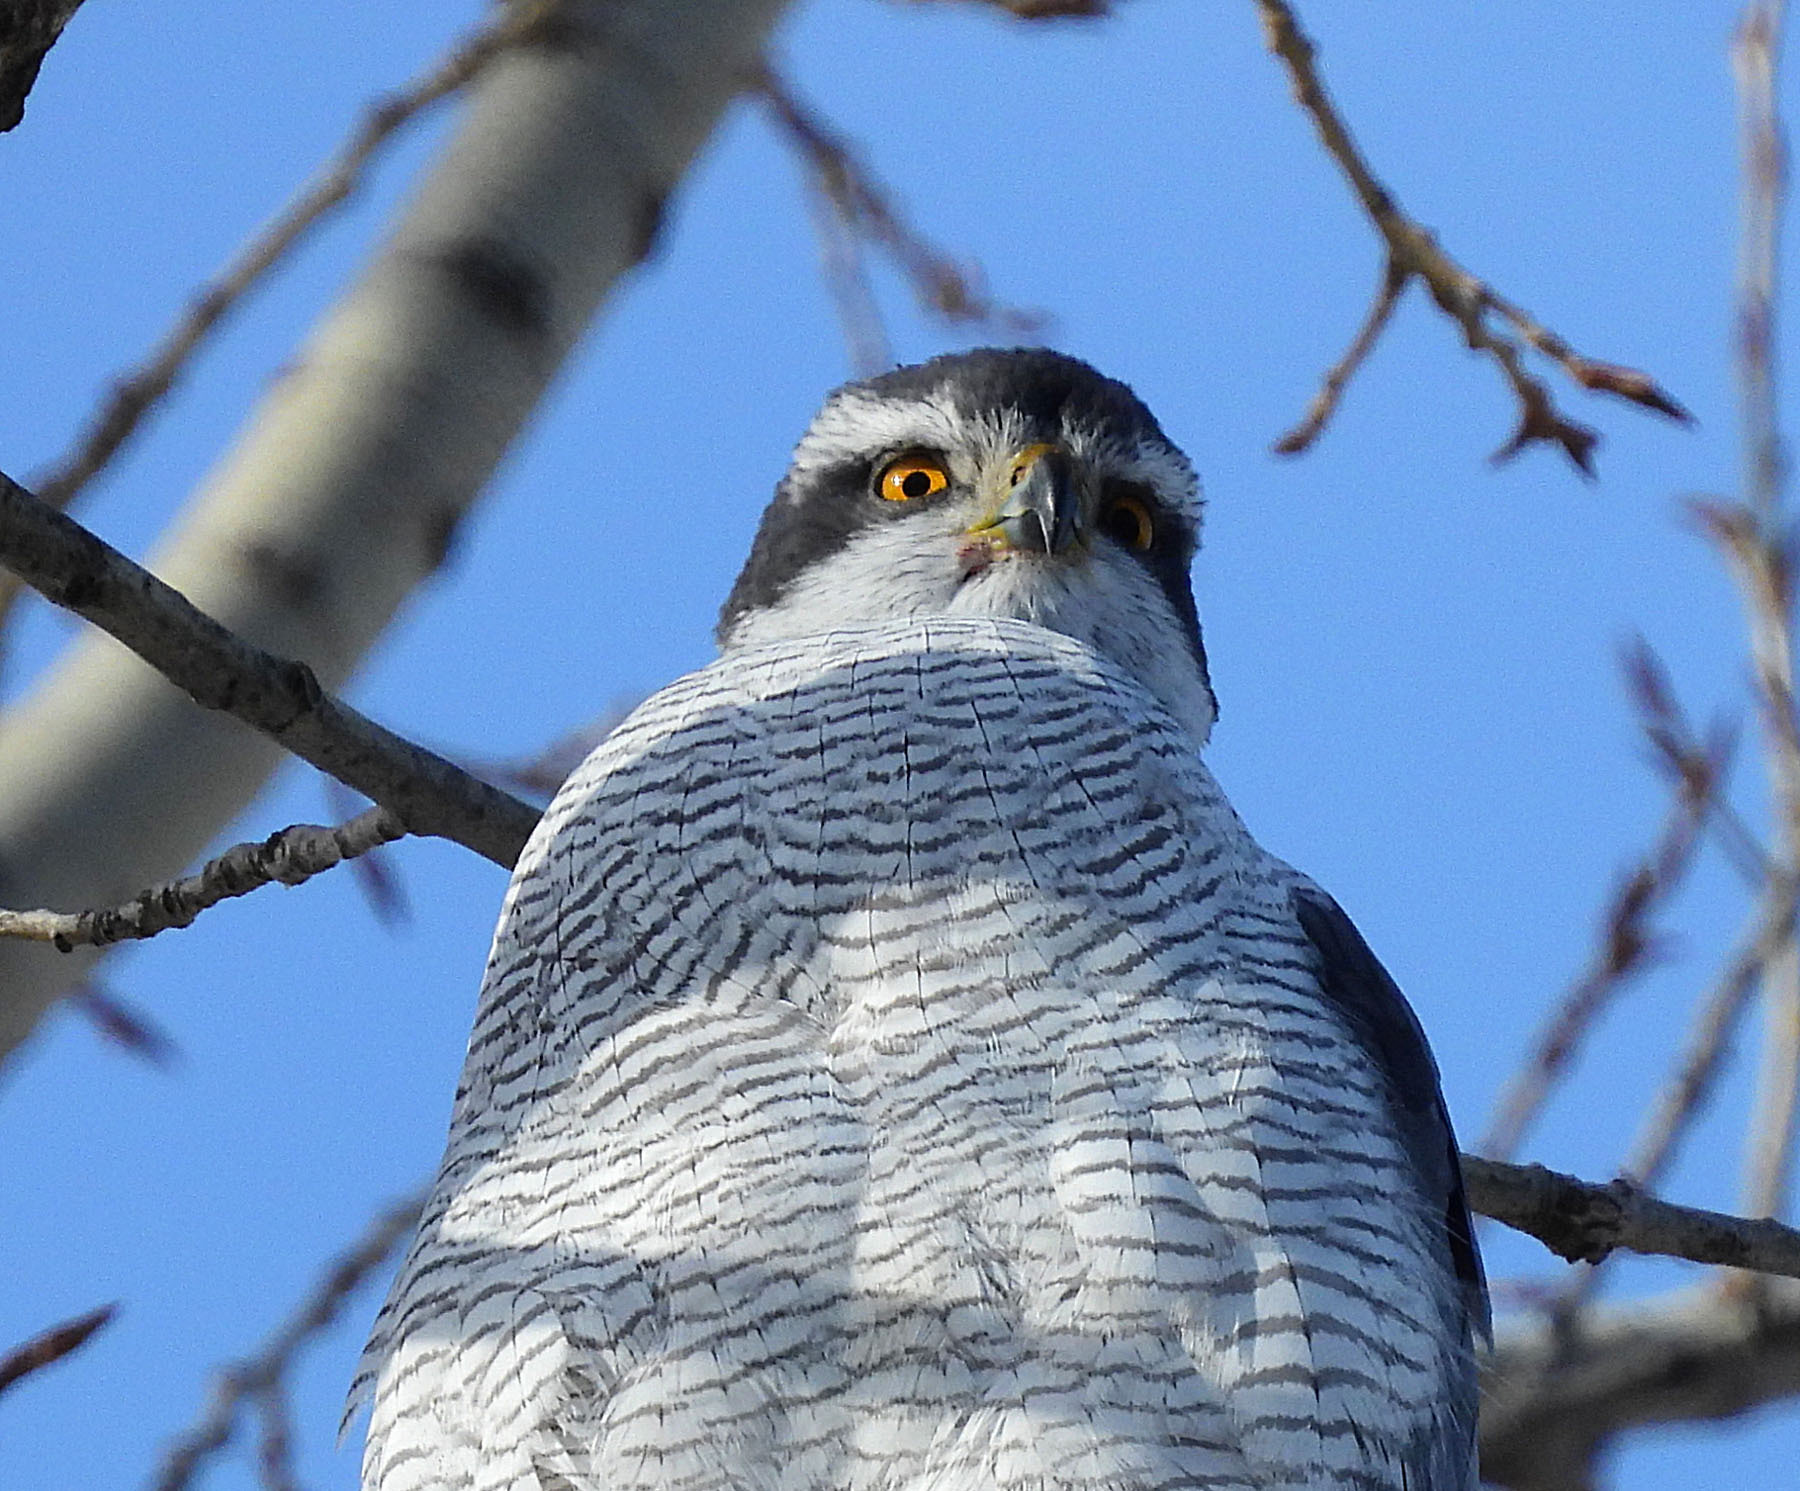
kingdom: Animalia
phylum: Chordata
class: Aves
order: Accipitriformes
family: Accipitridae
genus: Accipiter
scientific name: Accipiter gentilis
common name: Northern goshawk
